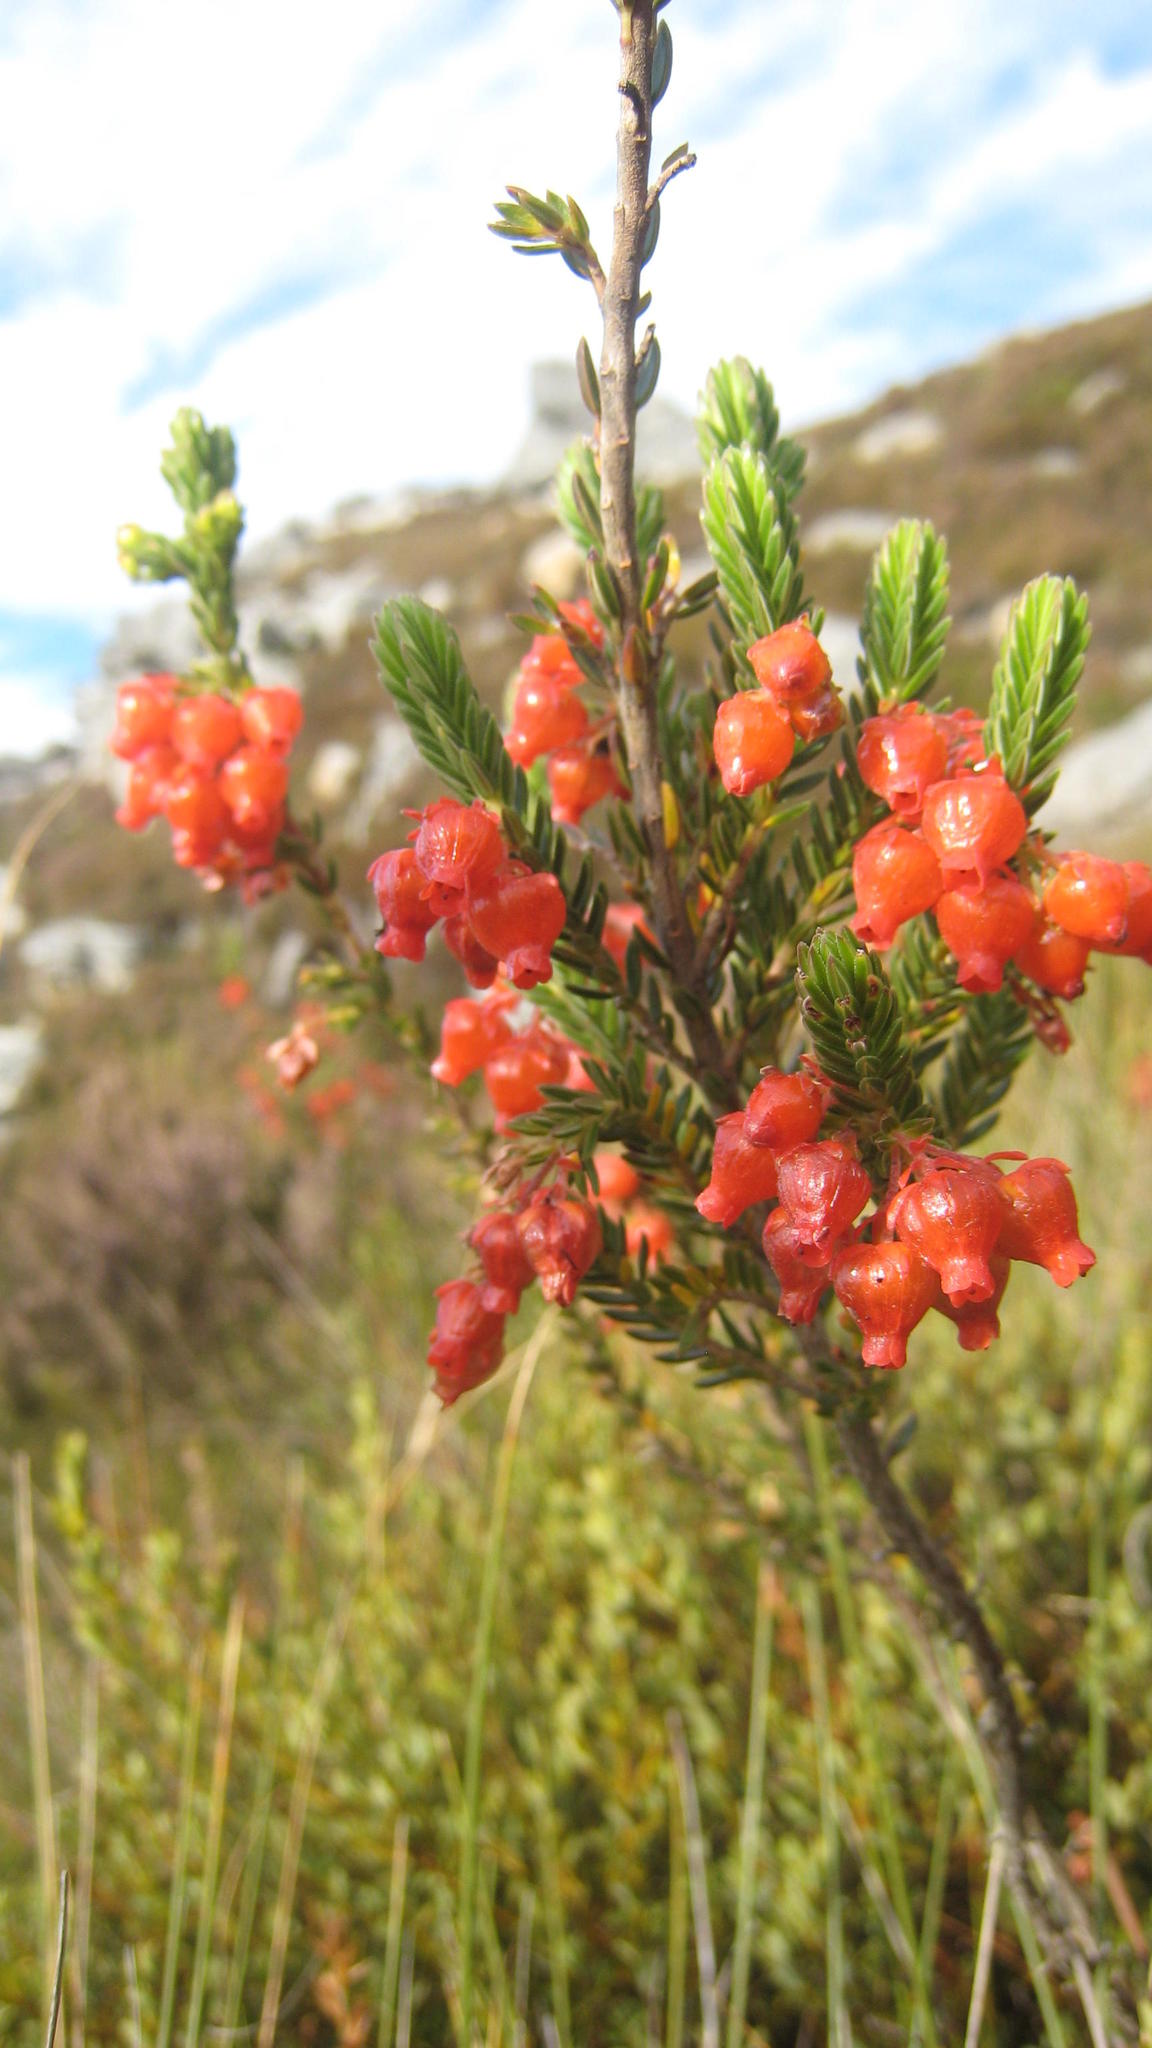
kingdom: Plantae
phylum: Tracheophyta
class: Magnoliopsida
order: Ericales
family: Ericaceae
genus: Erica
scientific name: Erica ardens
